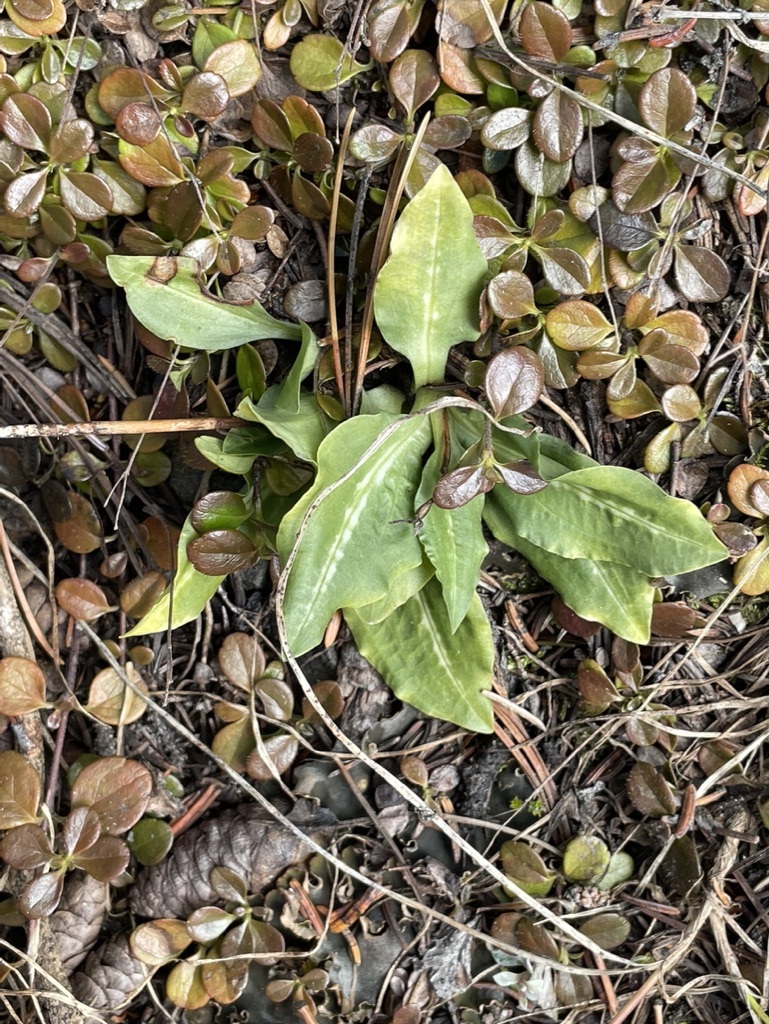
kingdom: Plantae
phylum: Tracheophyta
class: Liliopsida
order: Asparagales
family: Orchidaceae
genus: Goodyera
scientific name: Goodyera oblongifolia
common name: Giant rattlesnake-plantain
